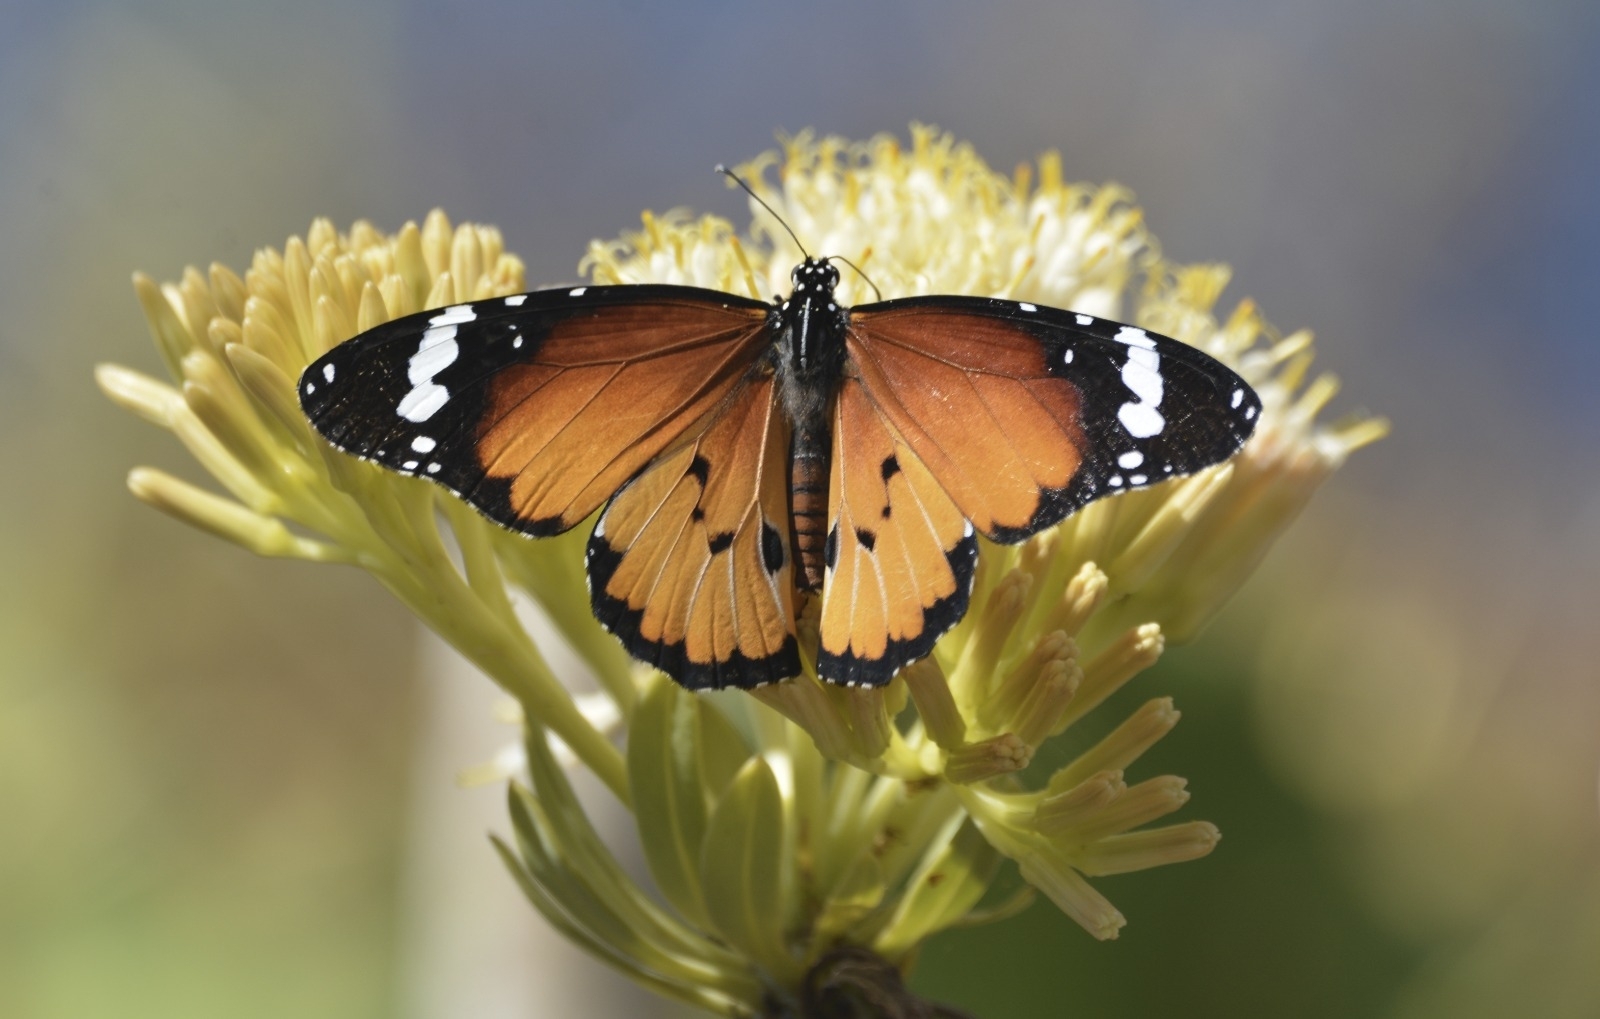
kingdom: Animalia
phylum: Arthropoda
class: Insecta
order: Lepidoptera
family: Nymphalidae
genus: Danaus
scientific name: Danaus chrysippus
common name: Plain tiger
